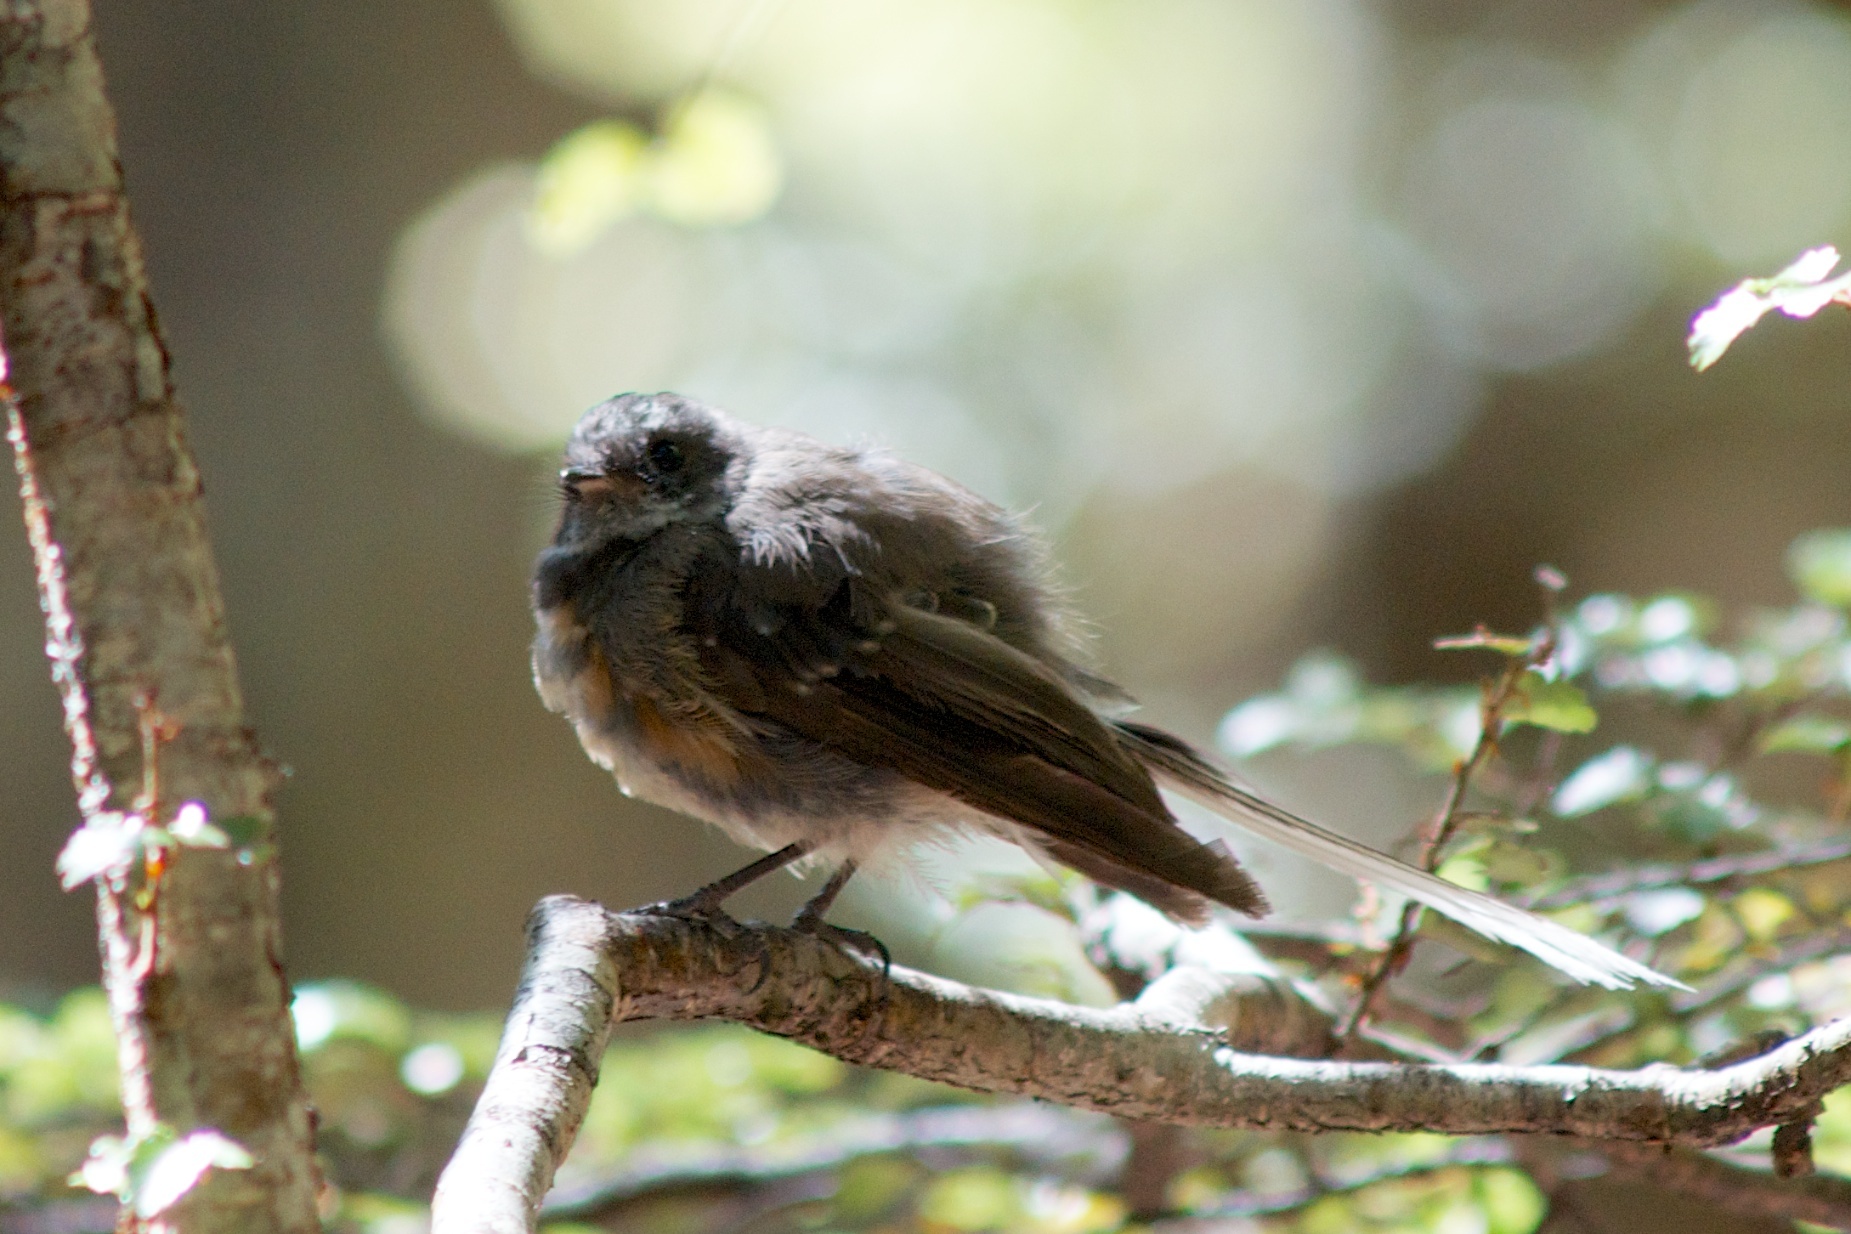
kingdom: Animalia
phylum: Chordata
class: Aves
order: Passeriformes
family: Rhipiduridae
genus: Rhipidura
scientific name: Rhipidura fuliginosa
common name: New zealand fantail
